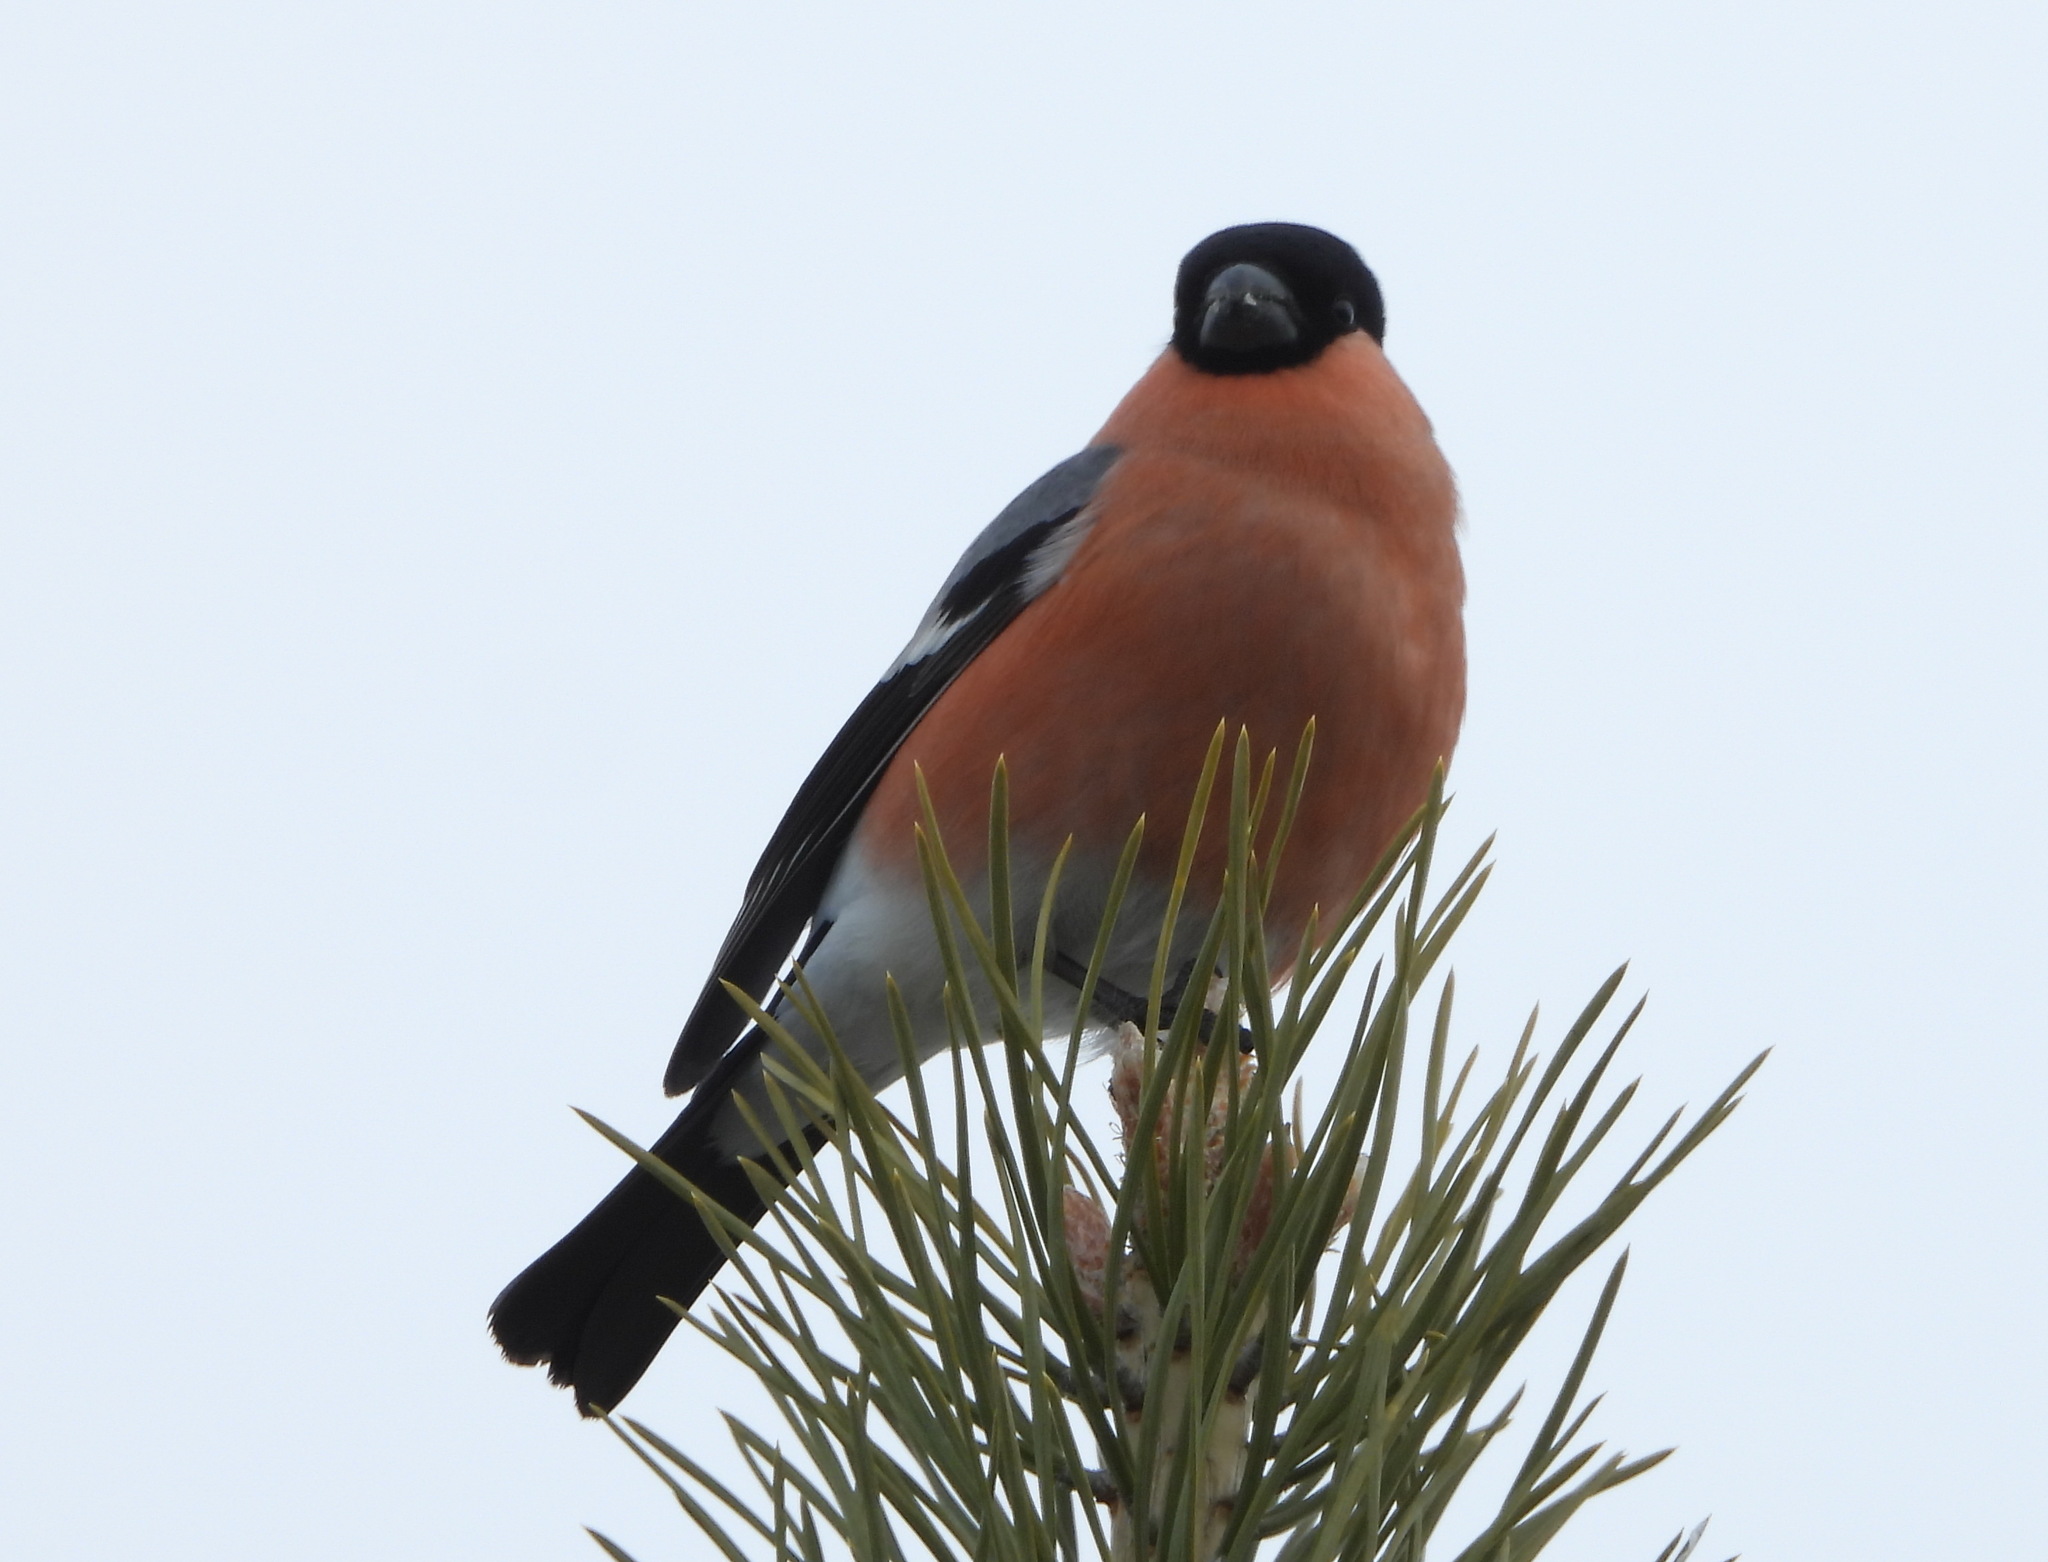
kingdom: Animalia
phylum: Chordata
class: Aves
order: Passeriformes
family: Fringillidae
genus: Pyrrhula
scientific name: Pyrrhula pyrrhula
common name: Eurasian bullfinch
